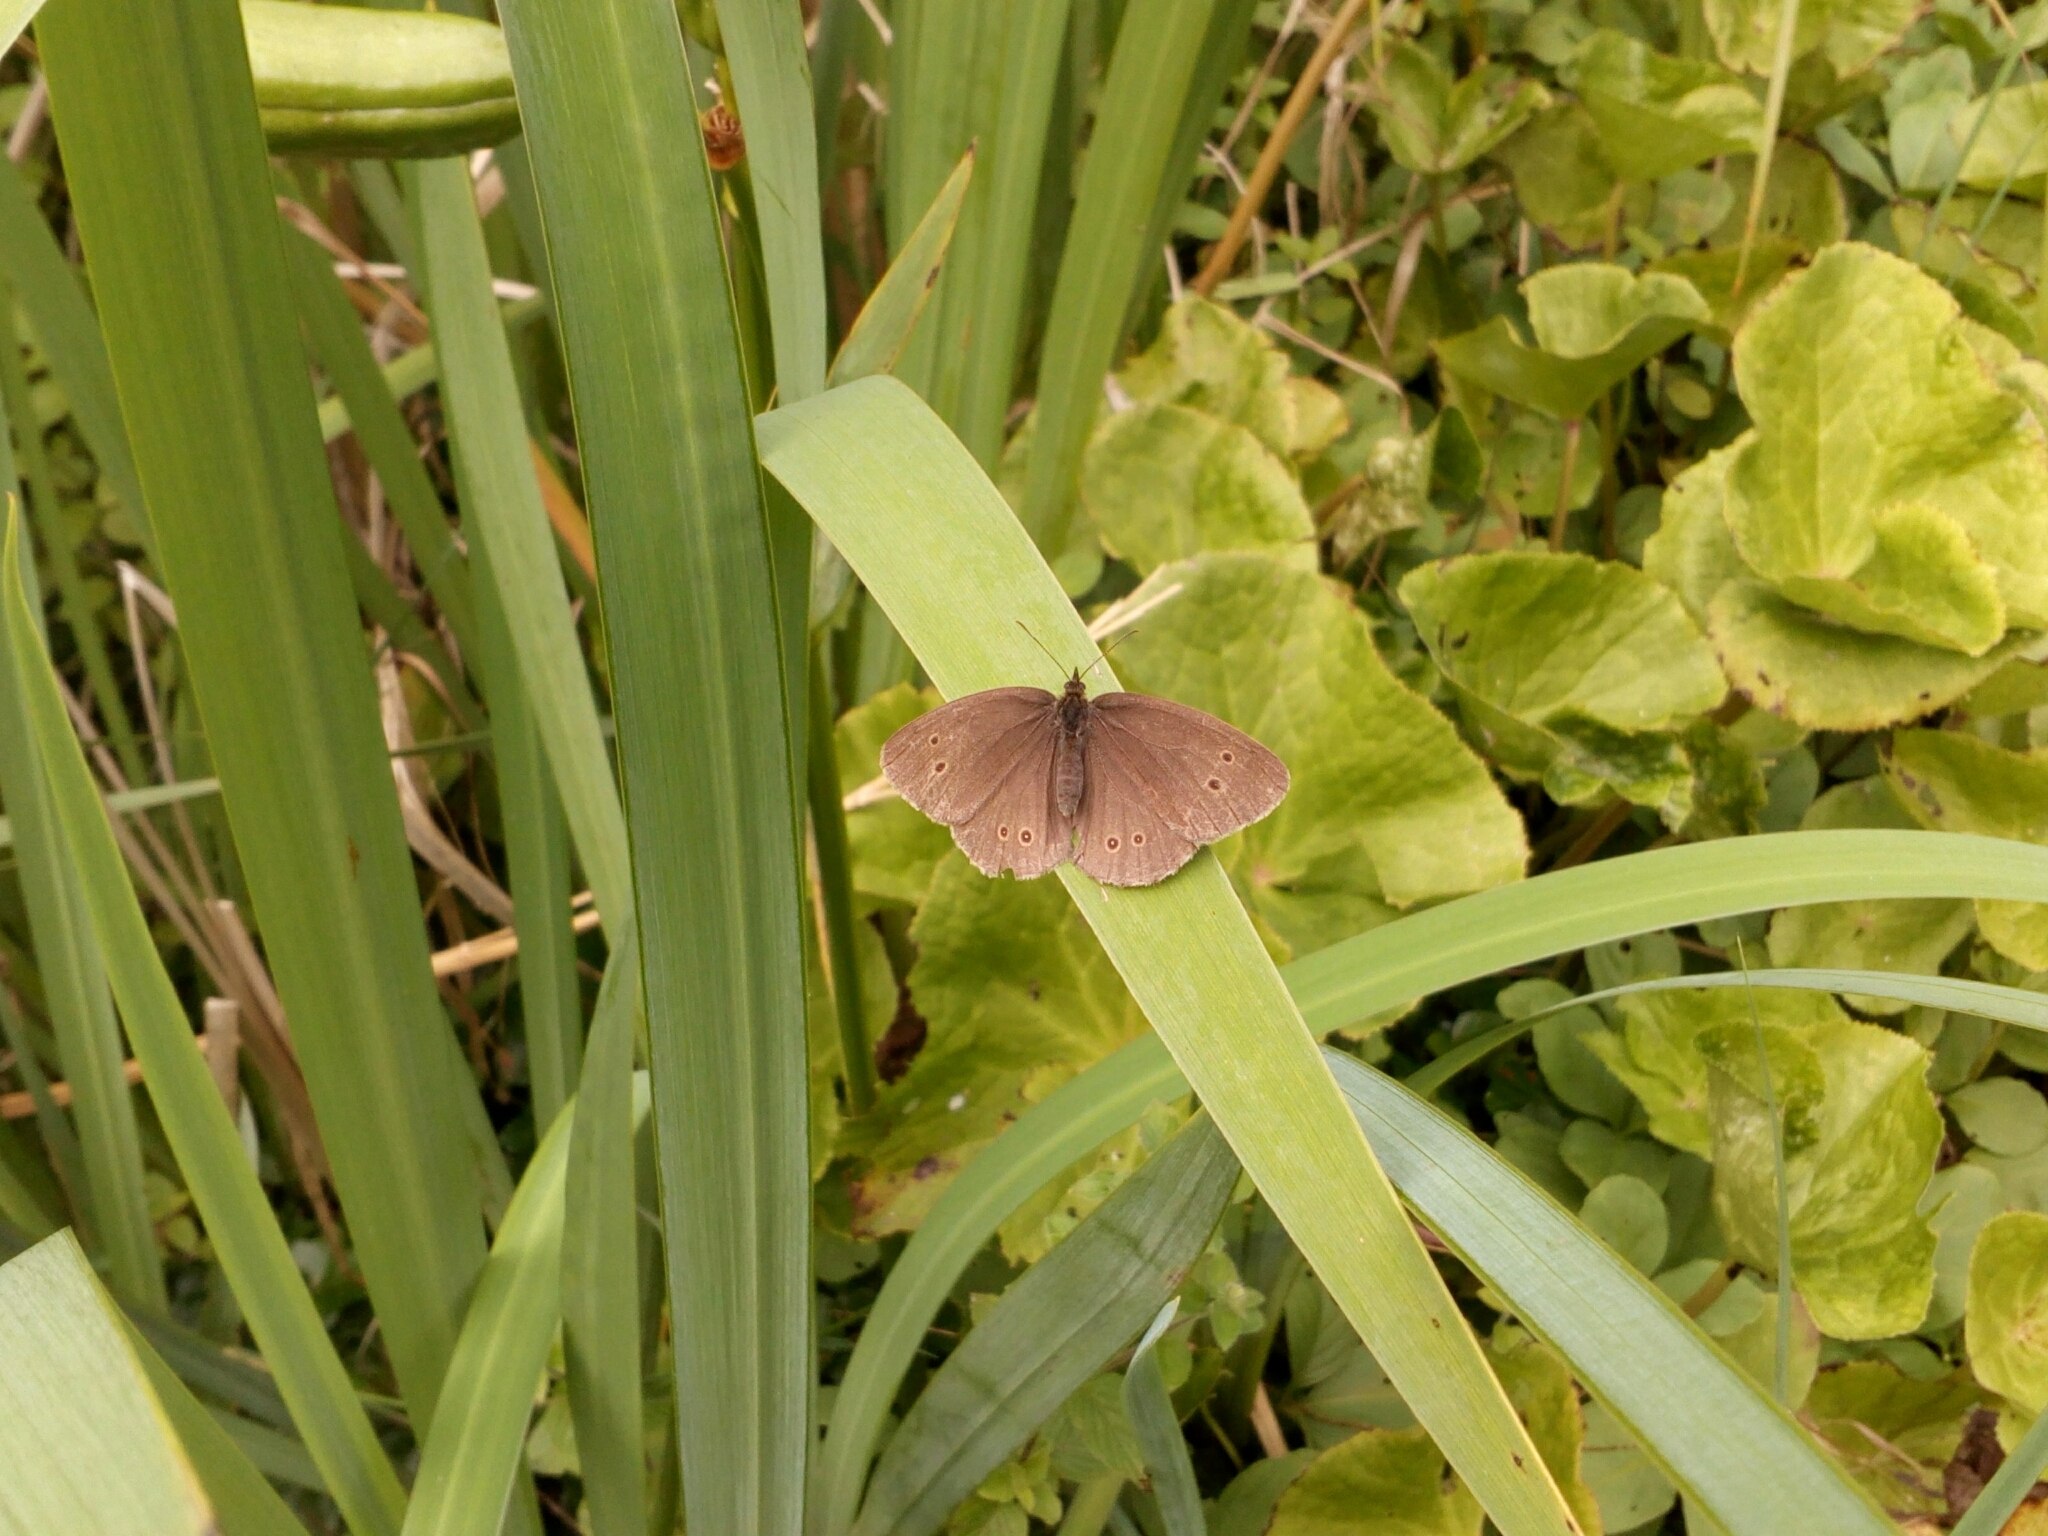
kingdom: Animalia
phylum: Arthropoda
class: Insecta
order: Lepidoptera
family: Nymphalidae
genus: Aphantopus
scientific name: Aphantopus hyperantus
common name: Ringlet
